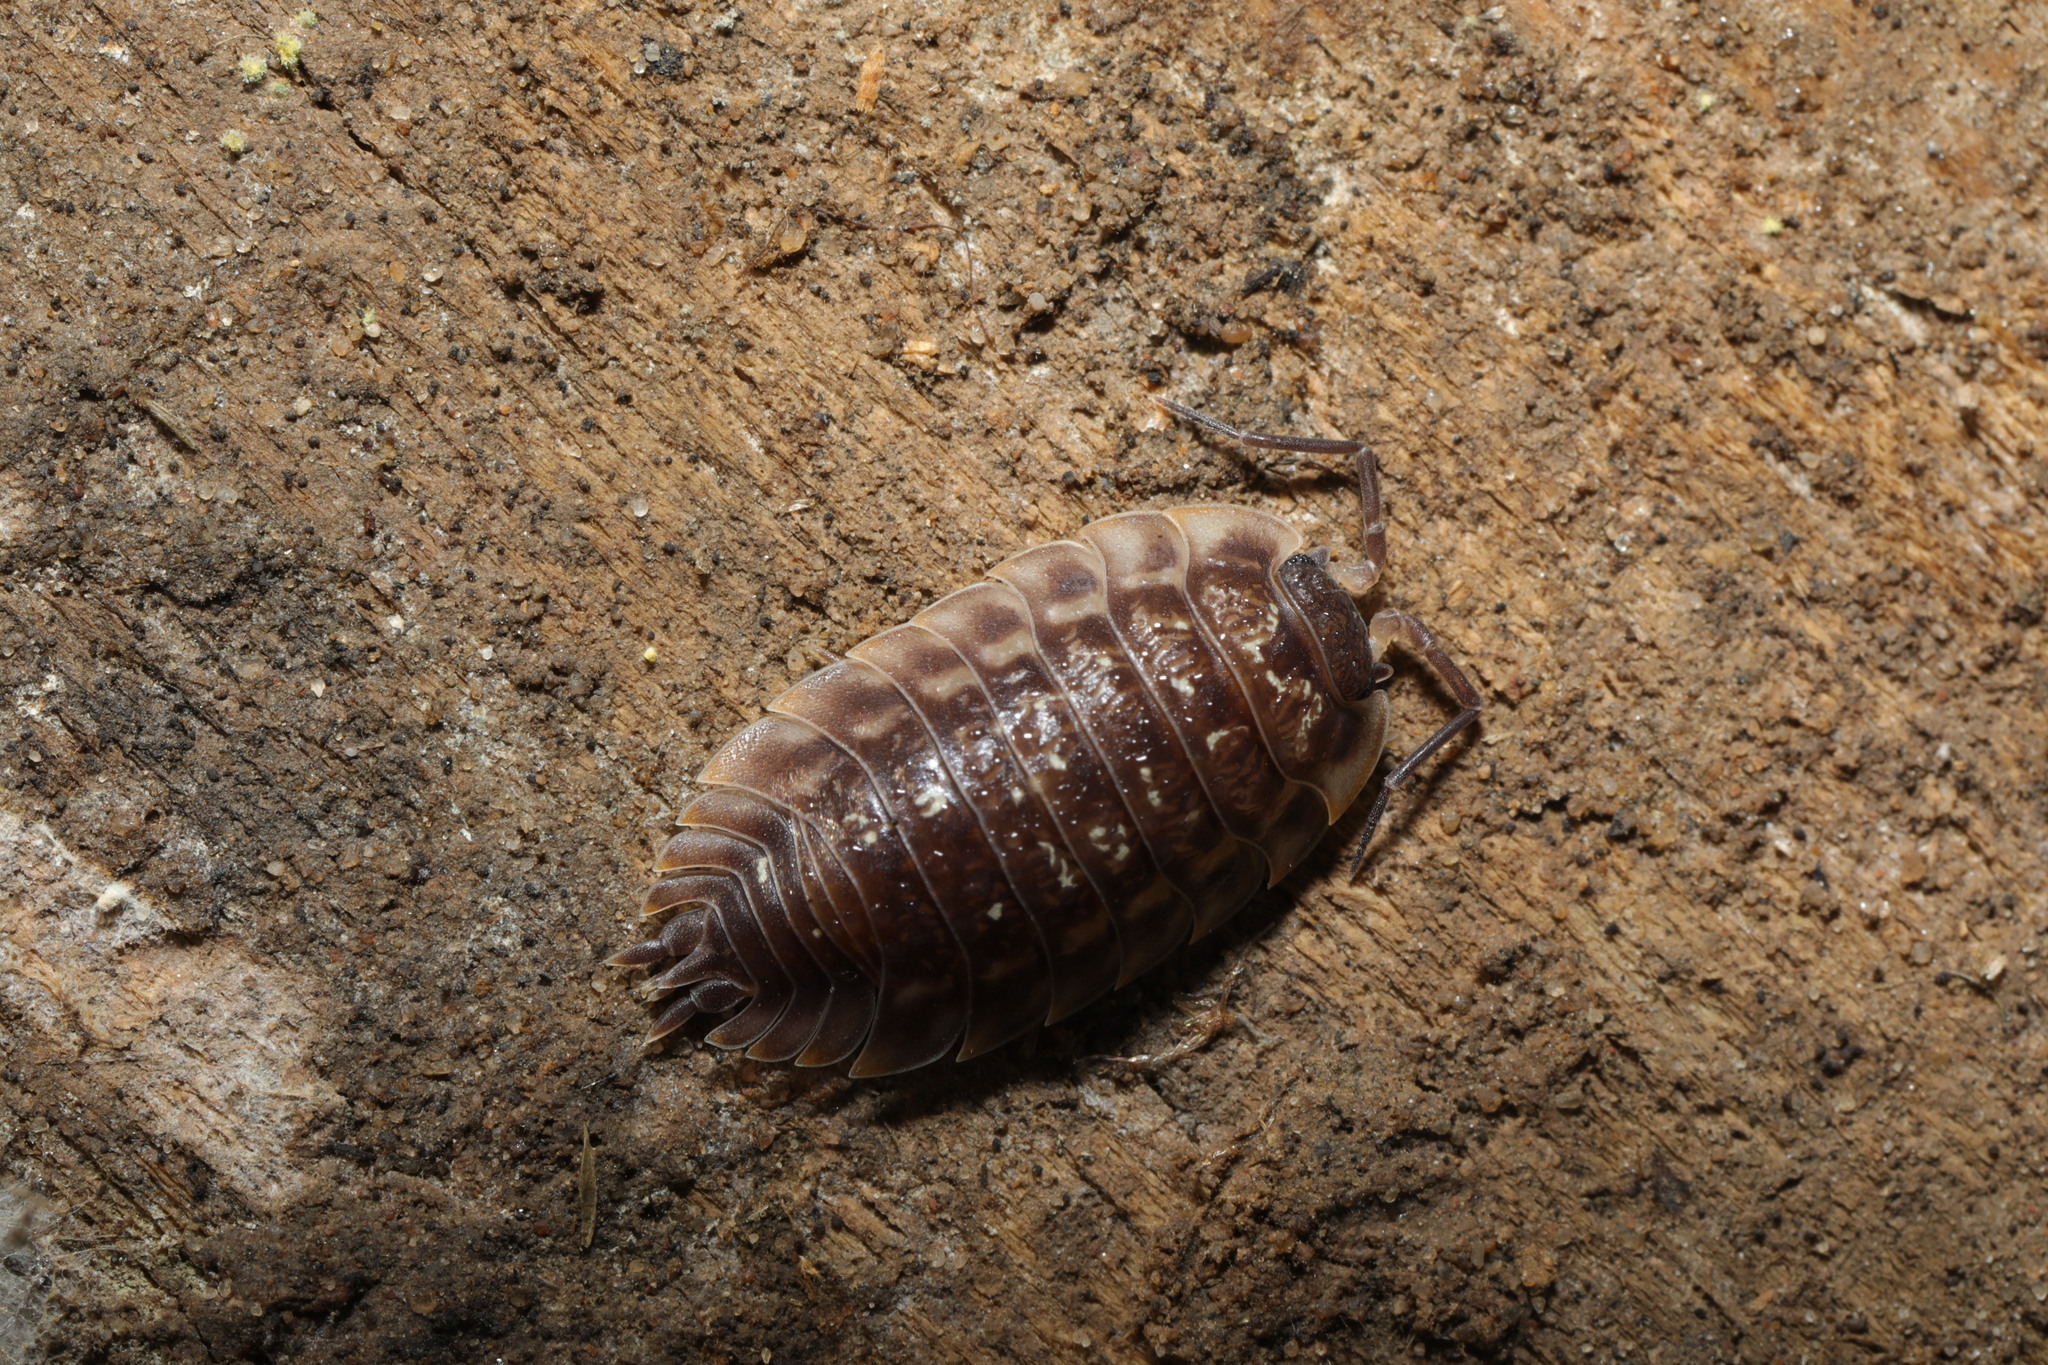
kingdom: Animalia
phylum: Arthropoda
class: Malacostraca
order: Isopoda
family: Oniscidae
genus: Oniscus
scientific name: Oniscus asellus
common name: Common shiny woodlouse
